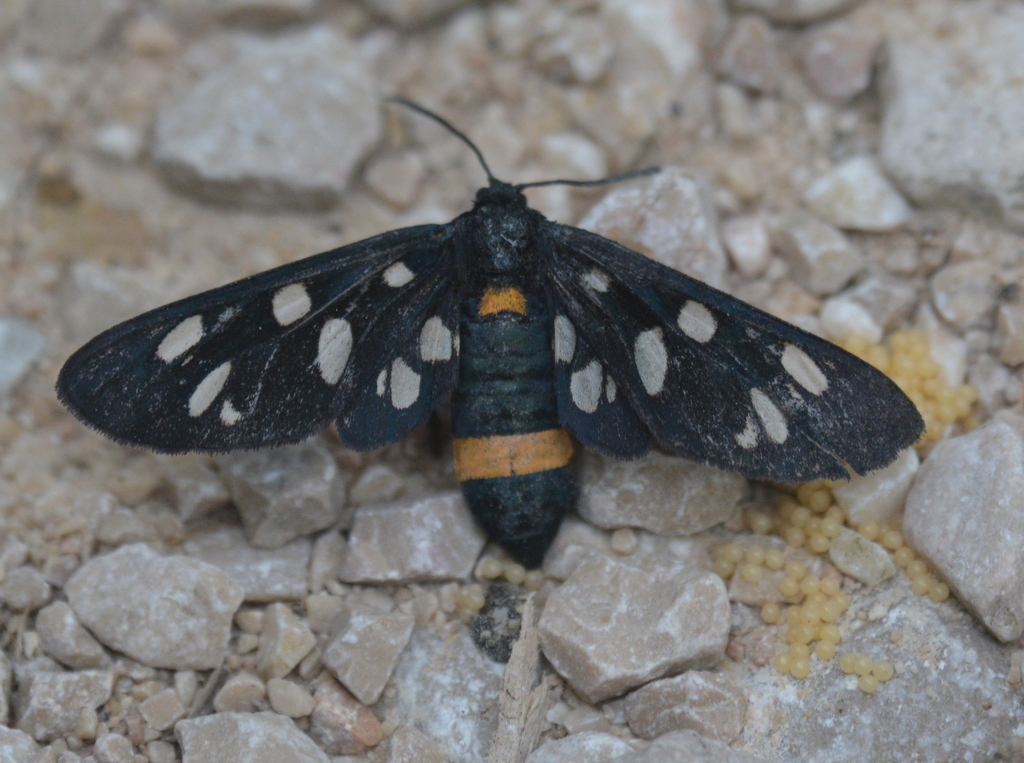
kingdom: Animalia
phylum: Arthropoda
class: Insecta
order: Lepidoptera
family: Erebidae
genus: Amata
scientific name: Amata phegea
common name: Nine-spotted
